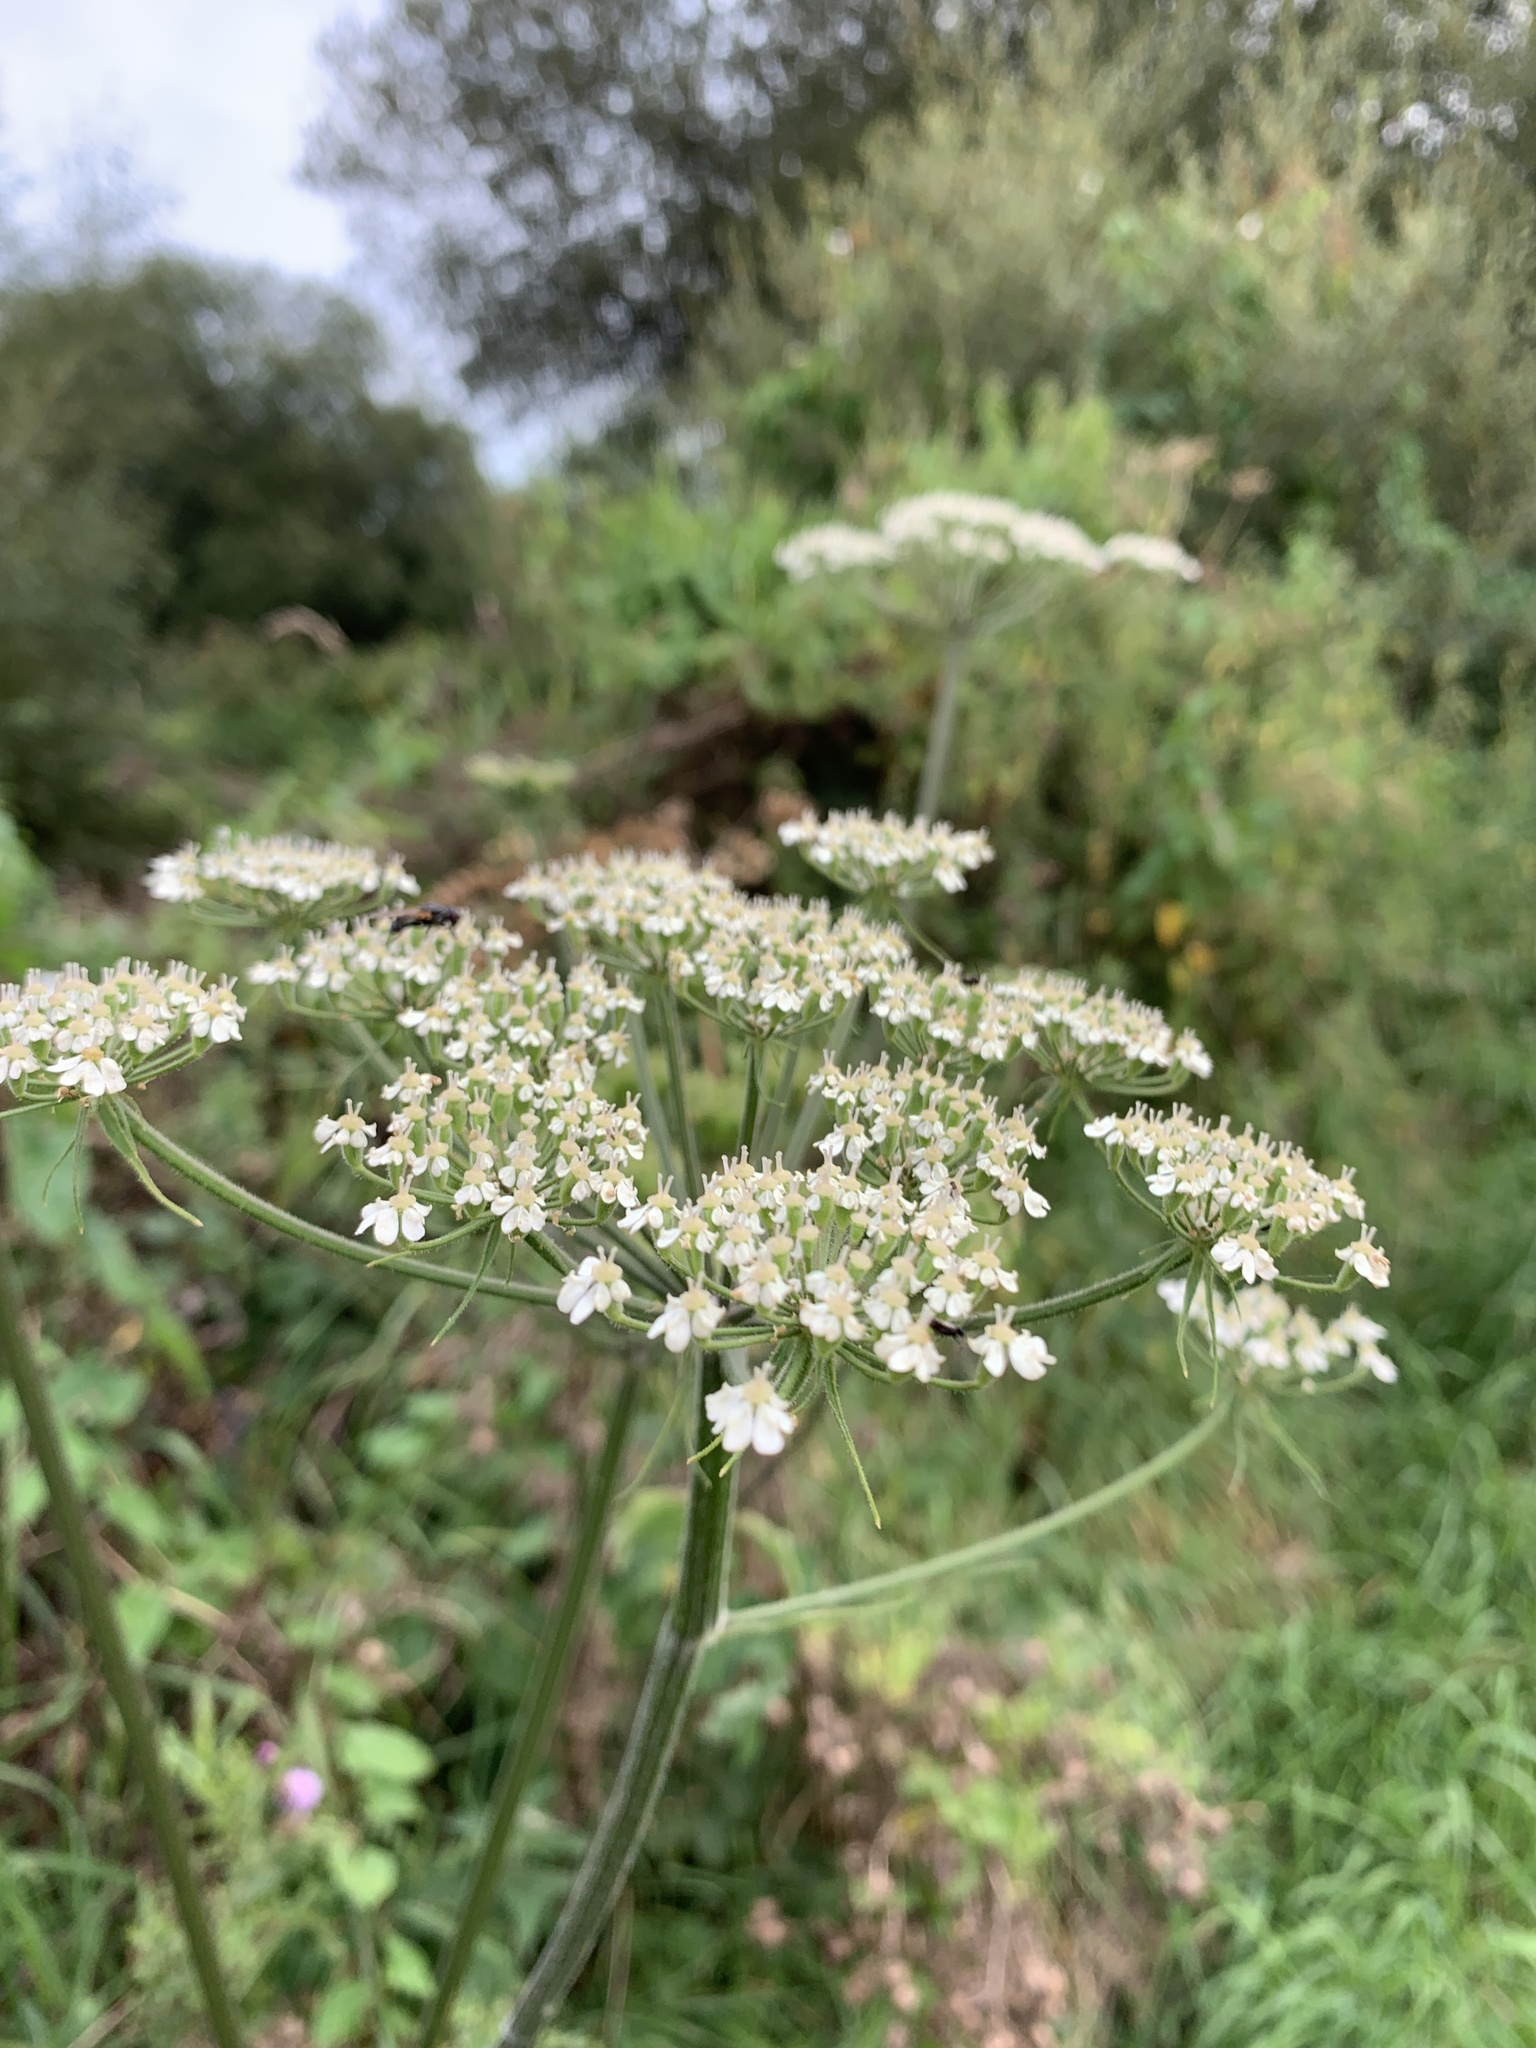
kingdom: Plantae
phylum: Tracheophyta
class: Magnoliopsida
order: Apiales
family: Apiaceae
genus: Heracleum
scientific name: Heracleum sphondylium
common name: Hogweed
